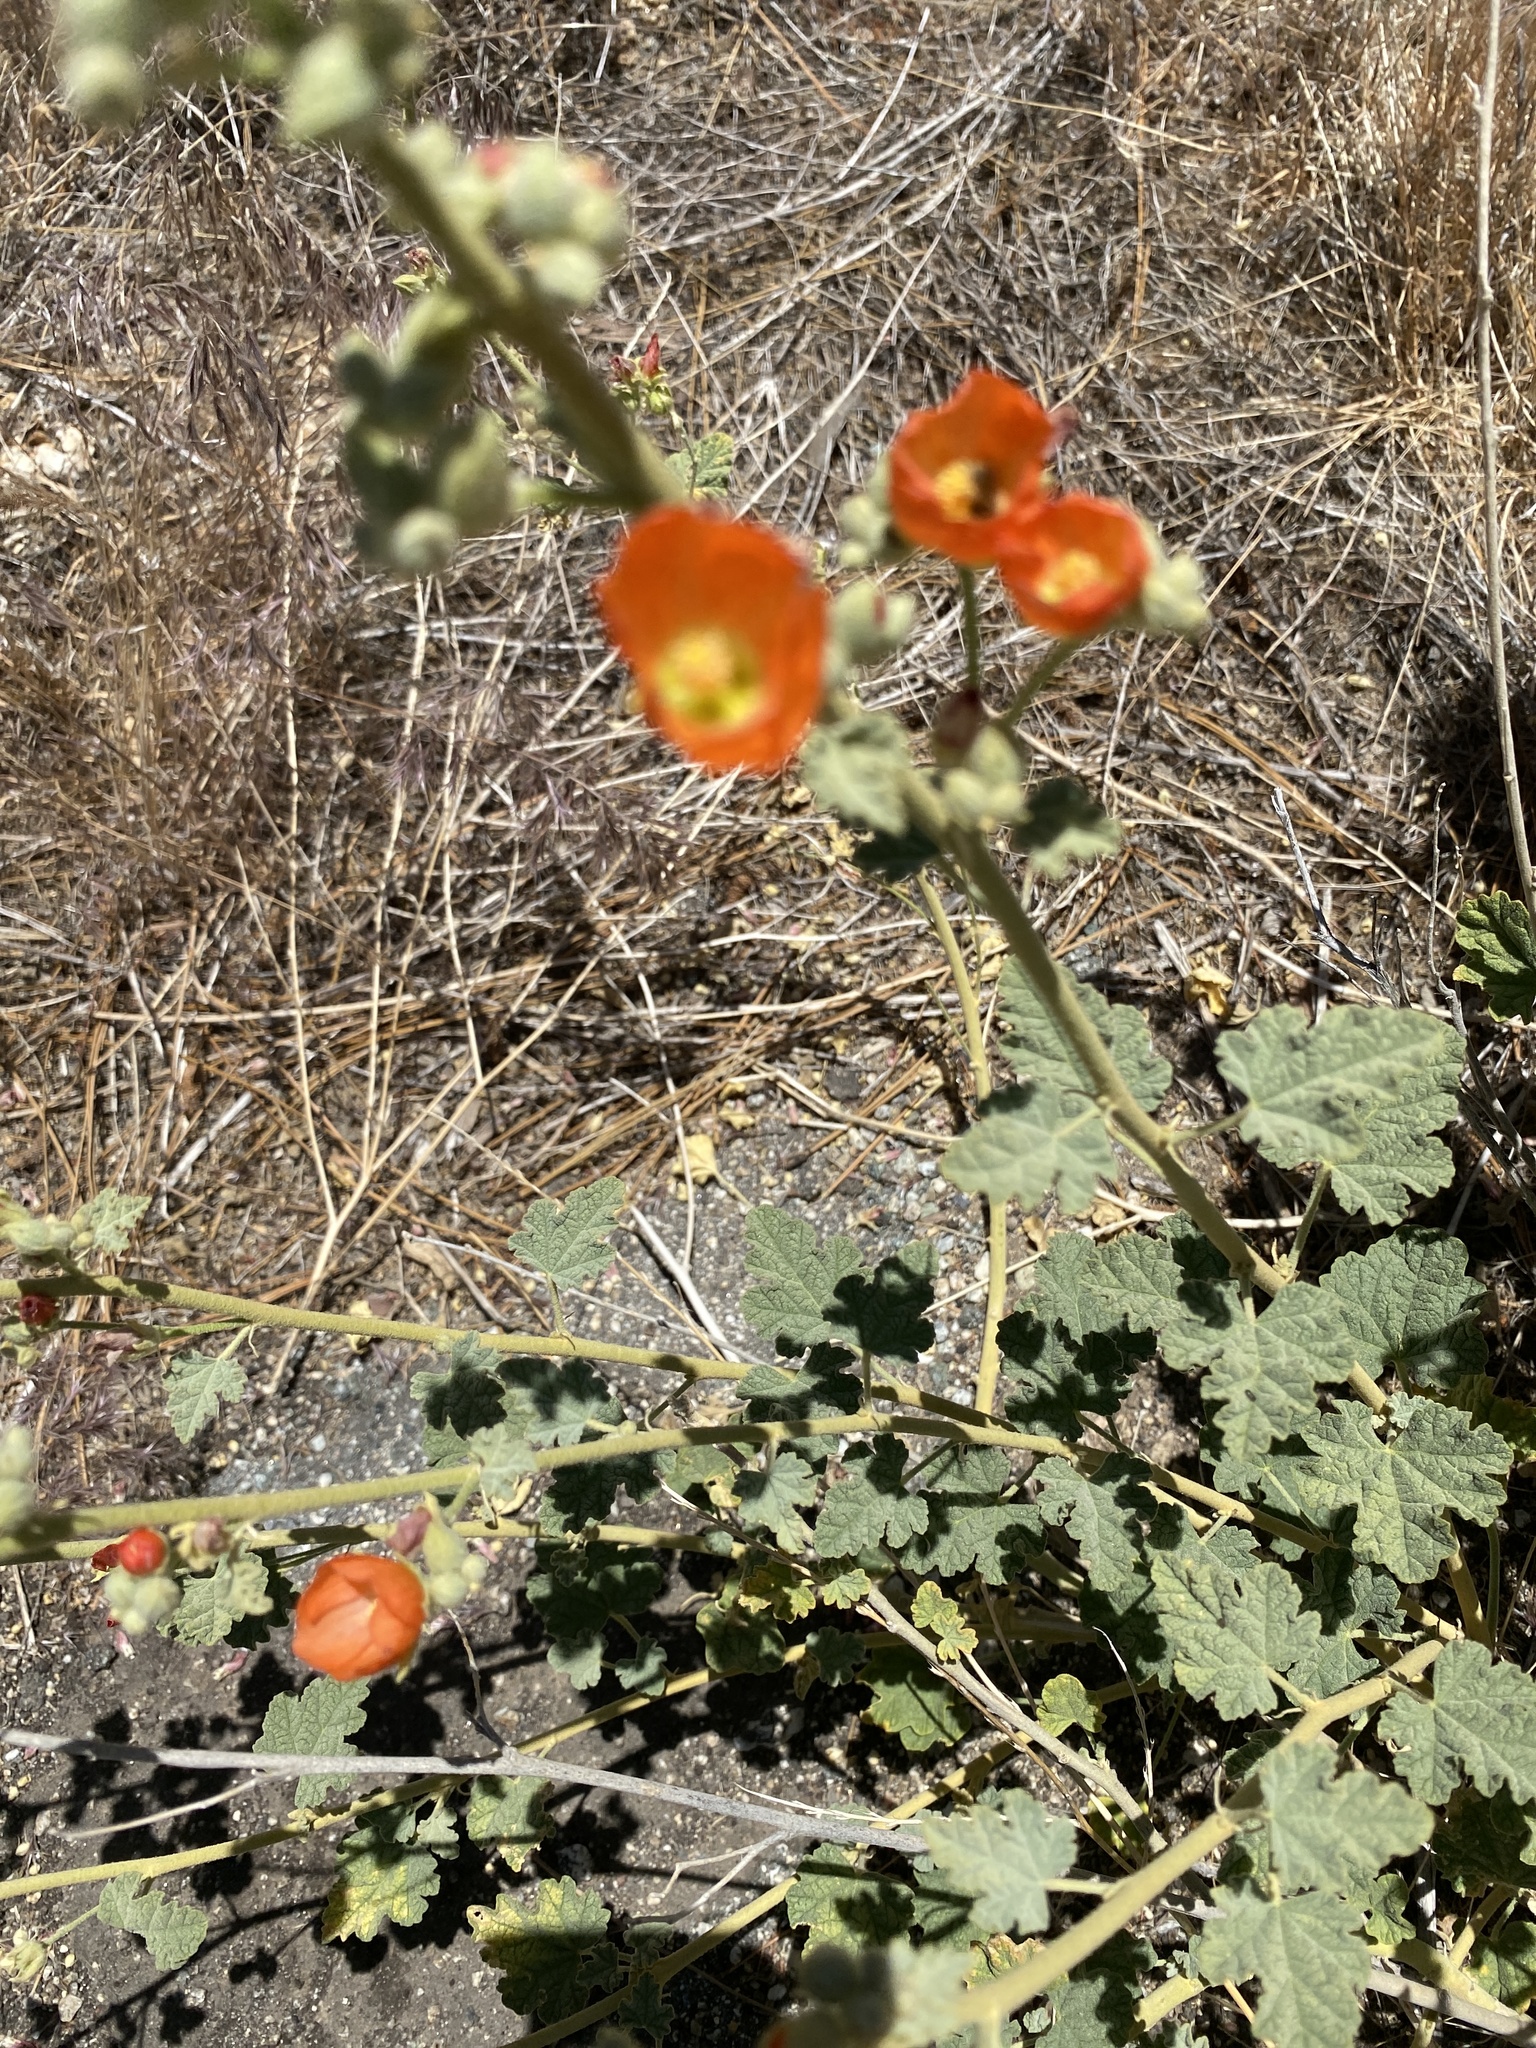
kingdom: Plantae
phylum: Tracheophyta
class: Magnoliopsida
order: Malvales
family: Malvaceae
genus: Sphaeralcea
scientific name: Sphaeralcea ambigua
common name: Apricot globe-mallow
